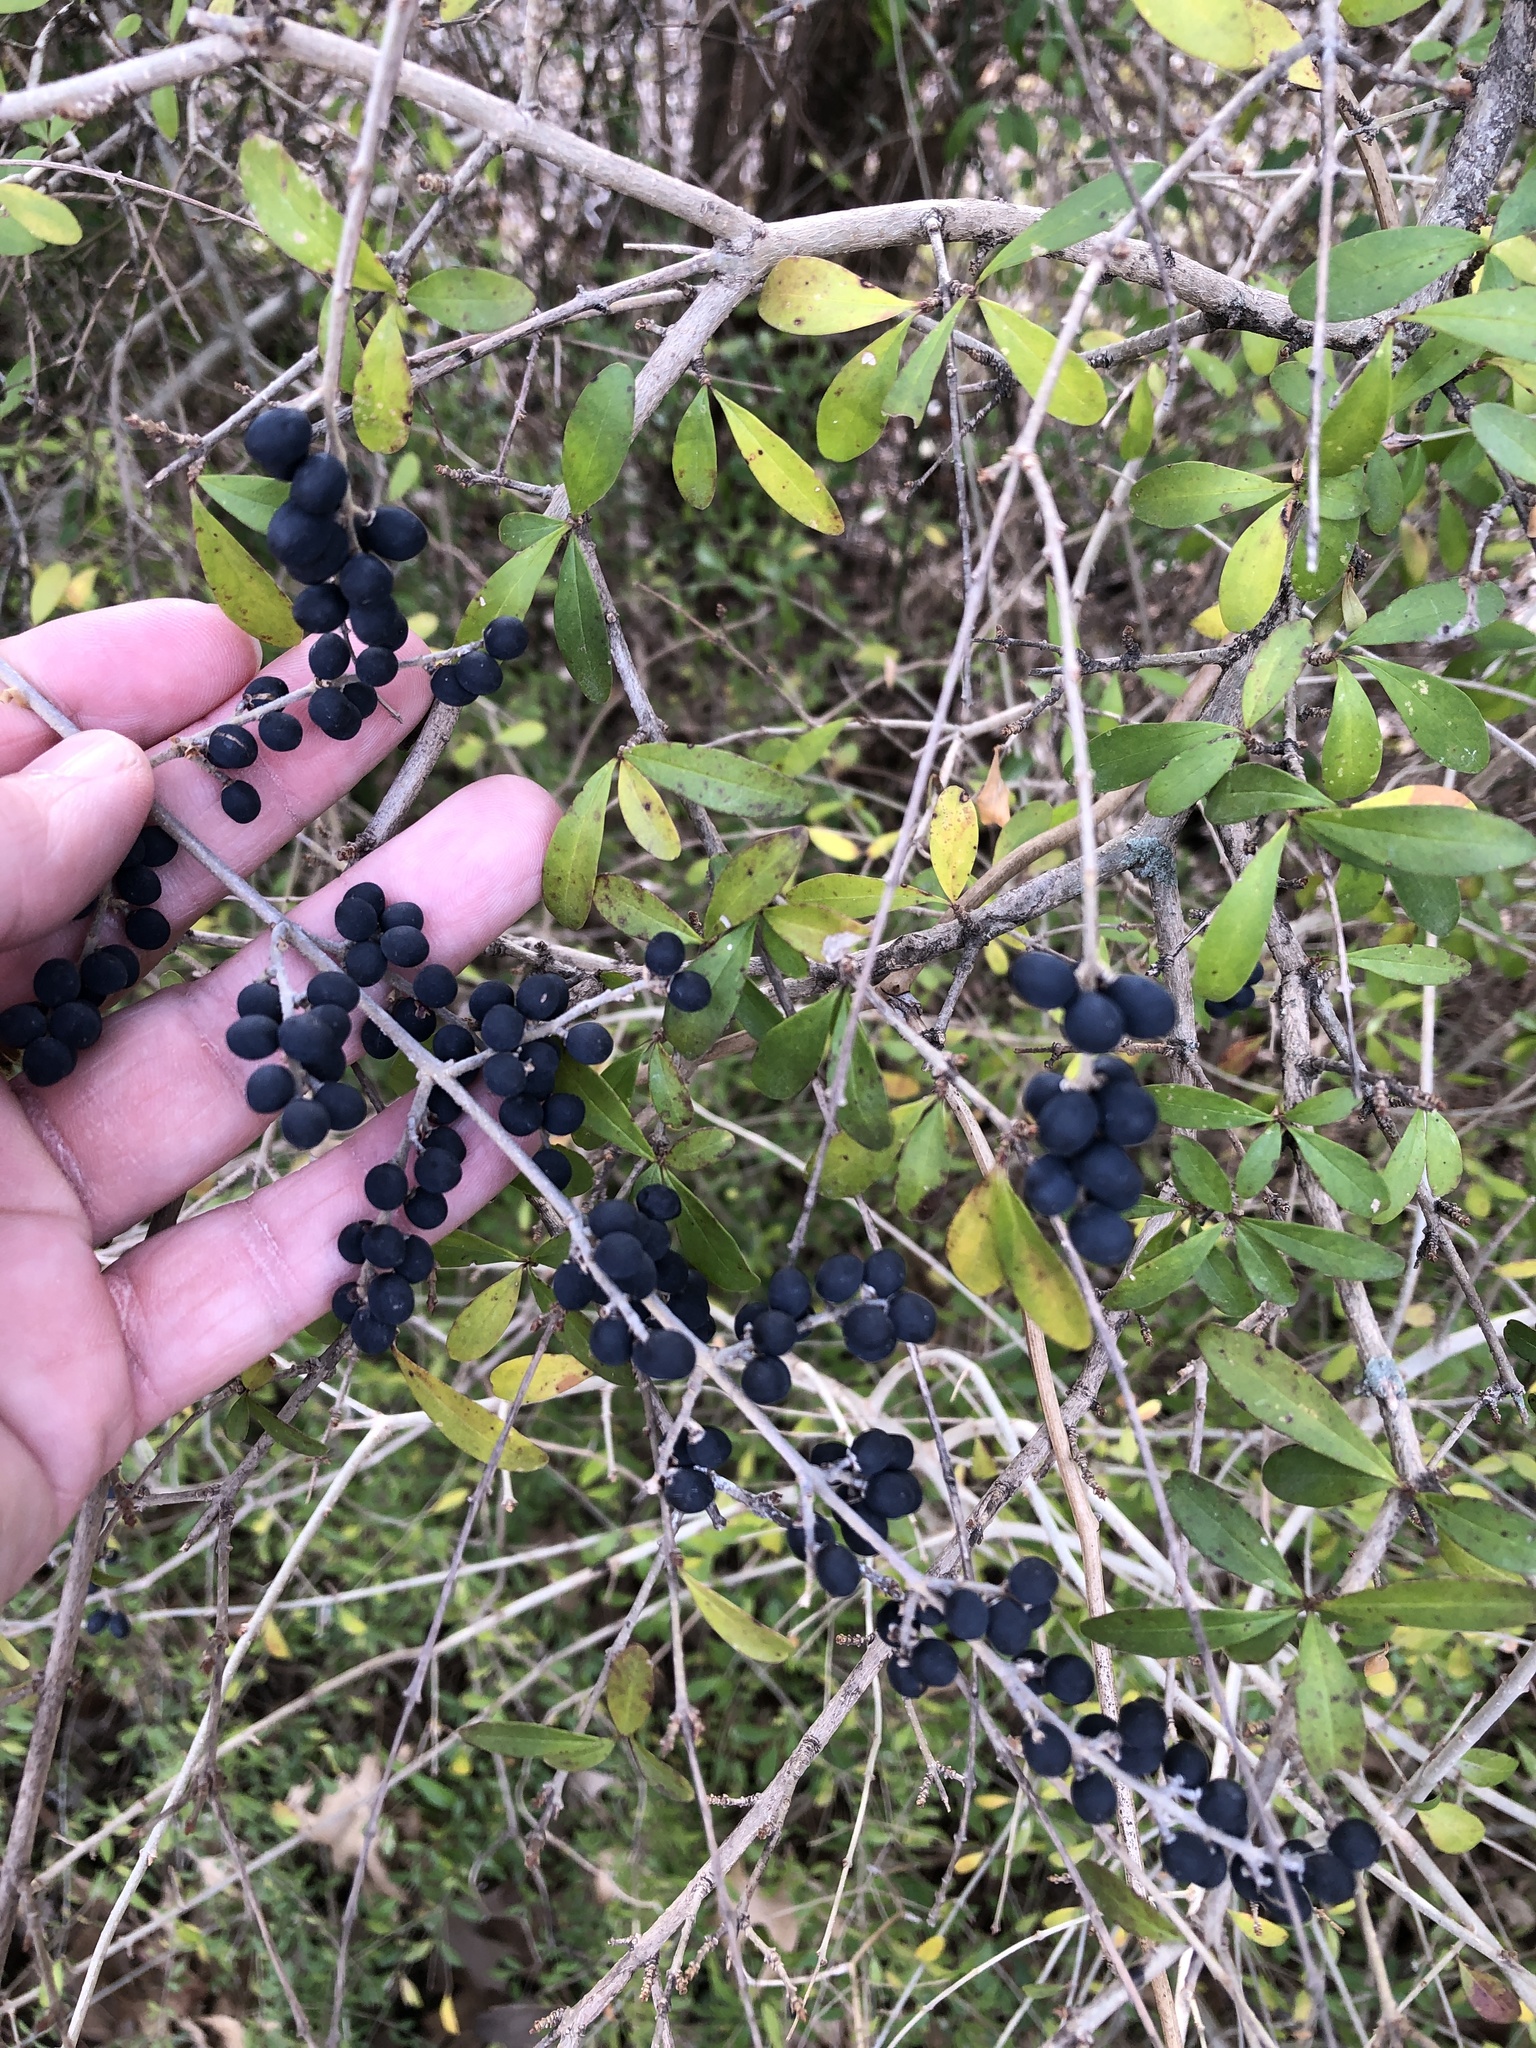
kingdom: Plantae
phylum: Tracheophyta
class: Magnoliopsida
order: Lamiales
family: Oleaceae
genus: Ligustrum
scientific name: Ligustrum quihoui
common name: Waxyleaf privet
